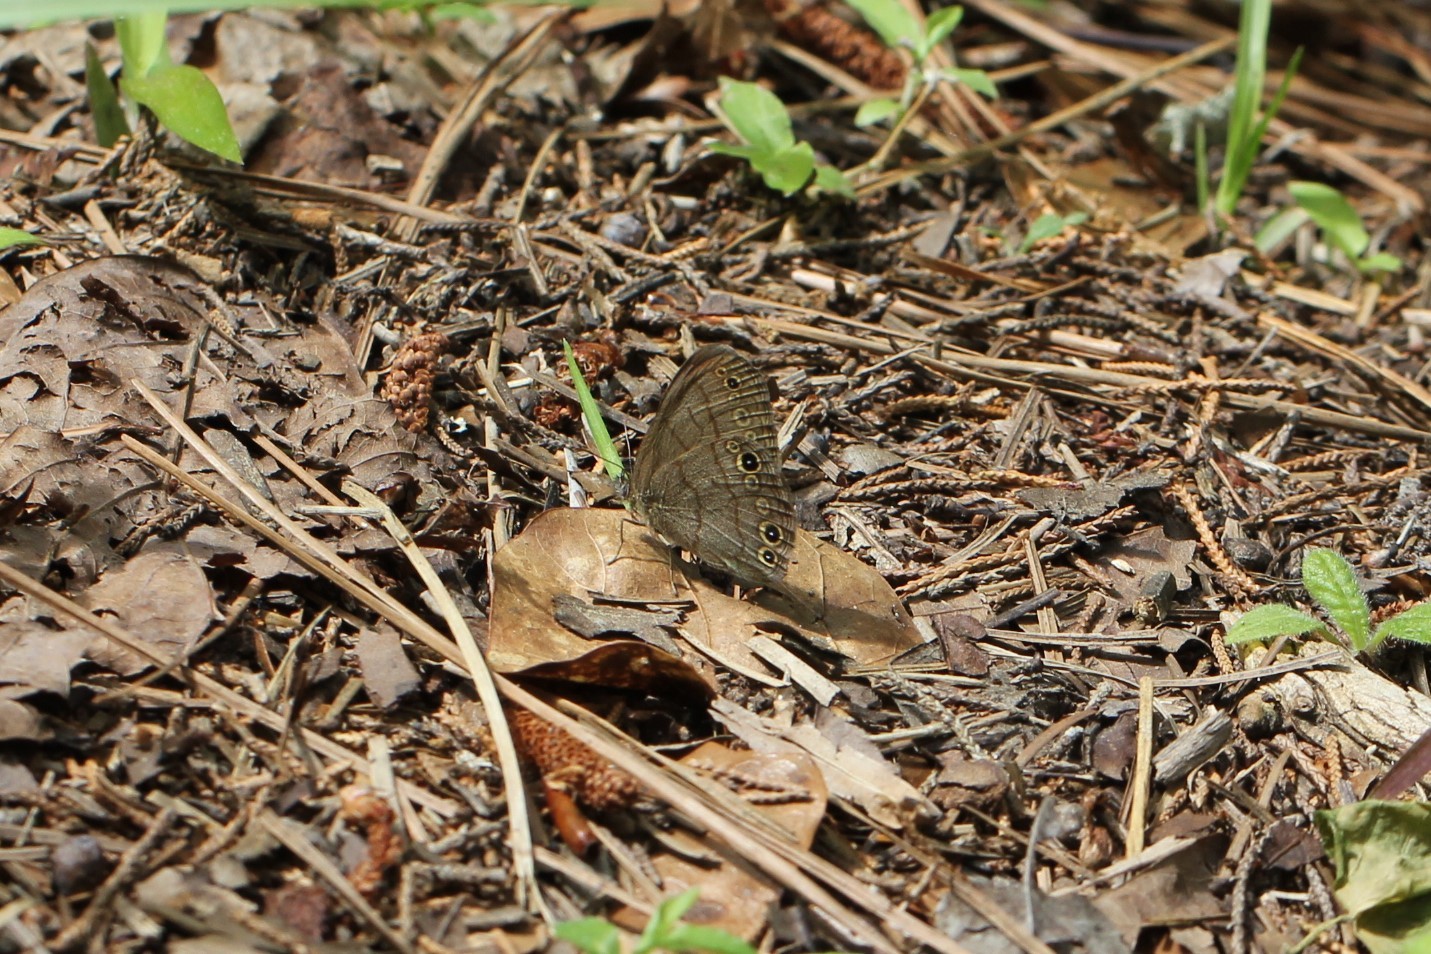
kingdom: Animalia
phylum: Arthropoda
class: Insecta
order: Lepidoptera
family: Nymphalidae
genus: Hermeuptychia
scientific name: Hermeuptychia intricata
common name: Intricate satyr
